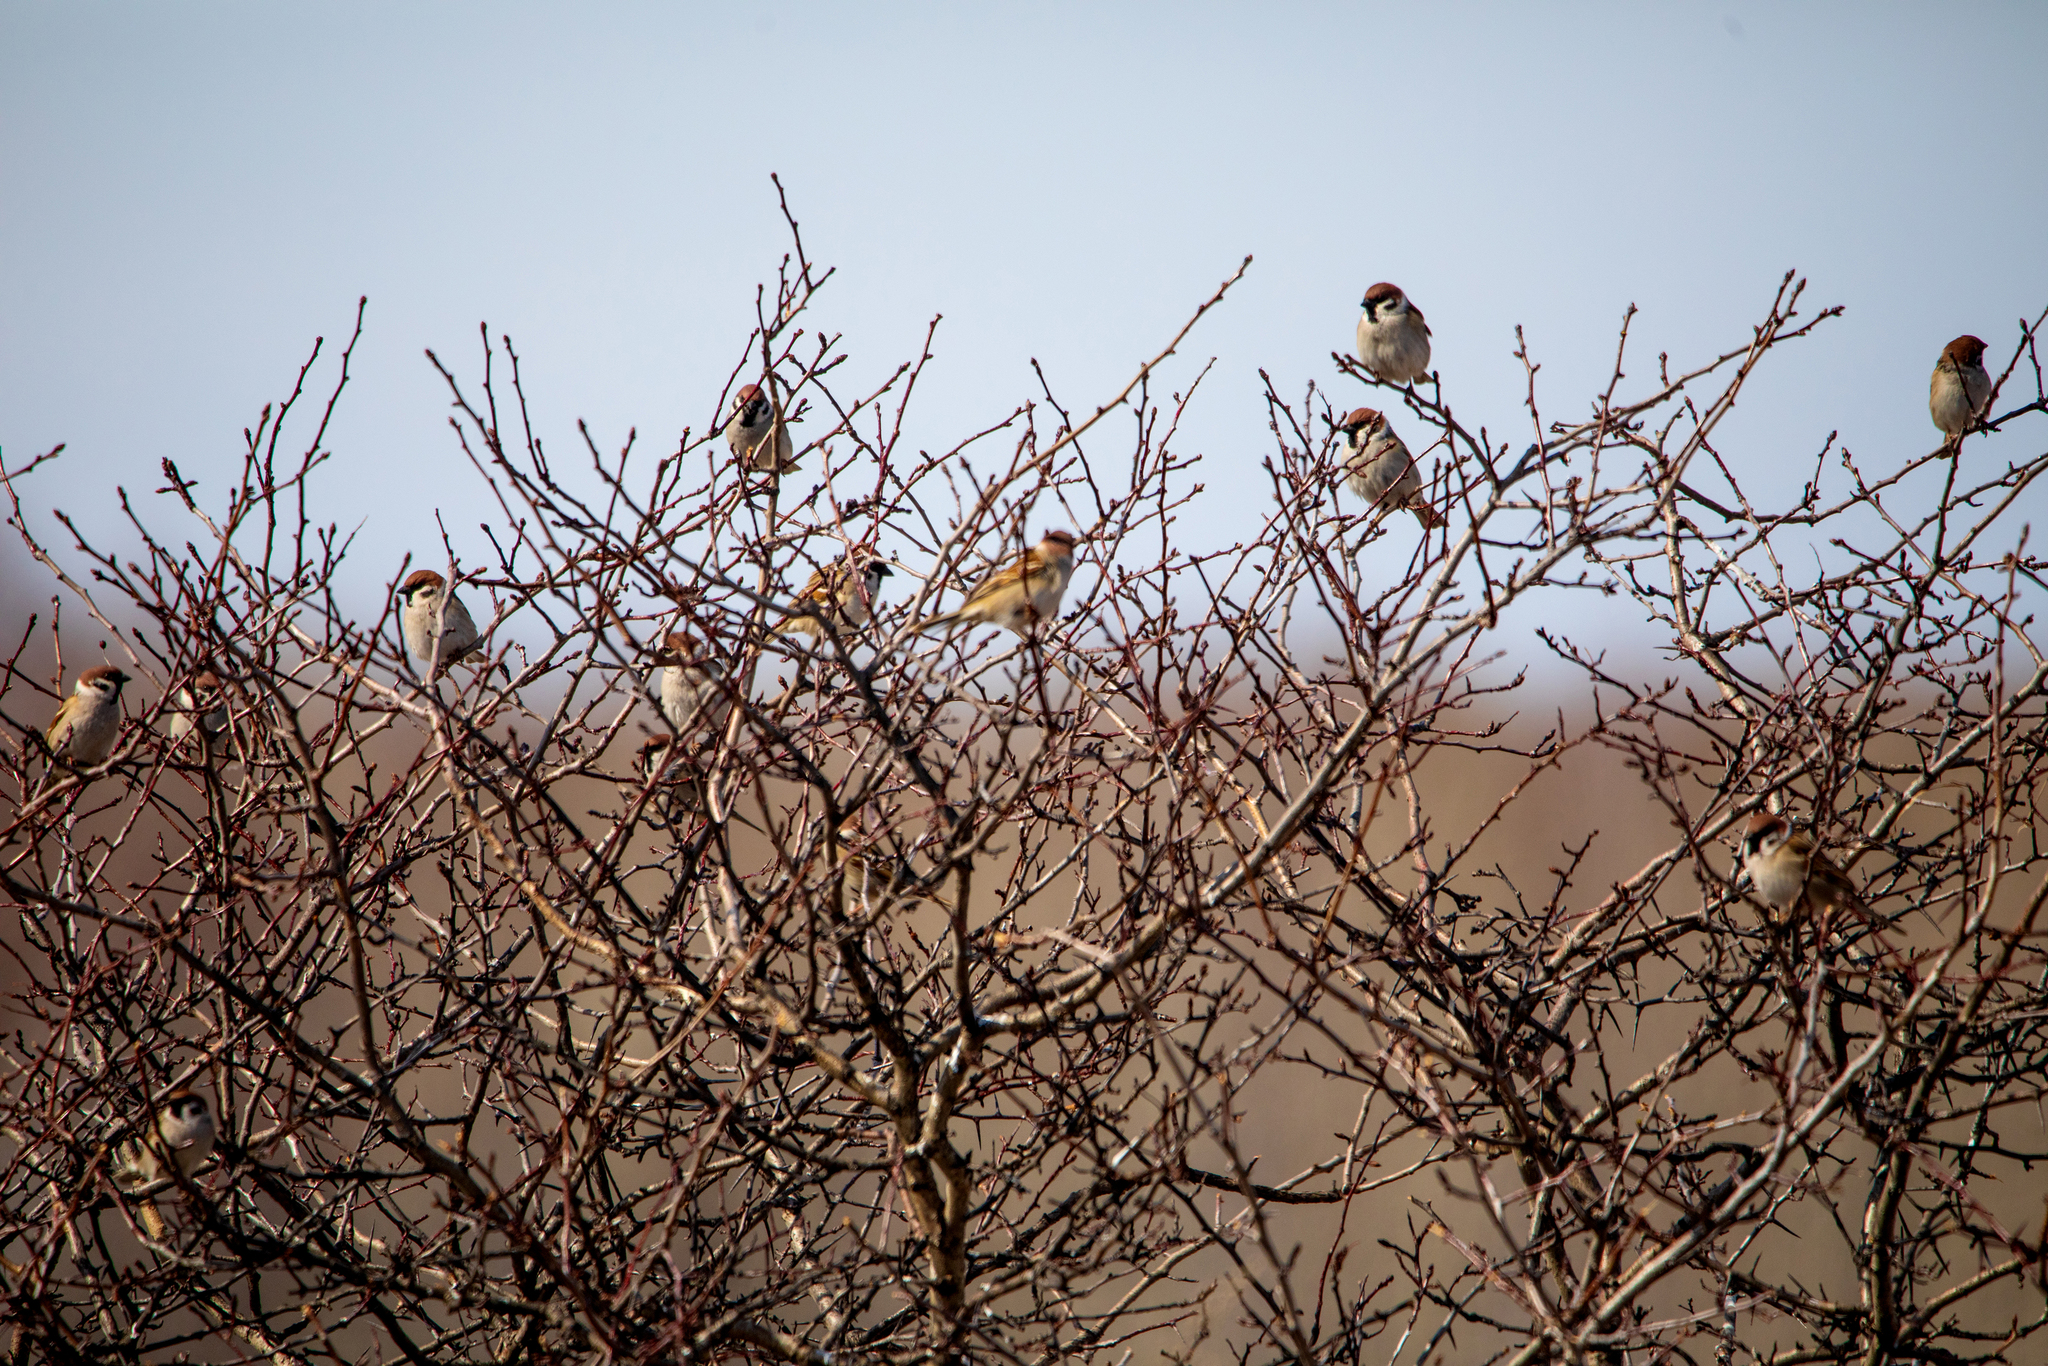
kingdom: Animalia
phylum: Chordata
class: Aves
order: Passeriformes
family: Passeridae
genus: Passer
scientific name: Passer montanus
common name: Eurasian tree sparrow
